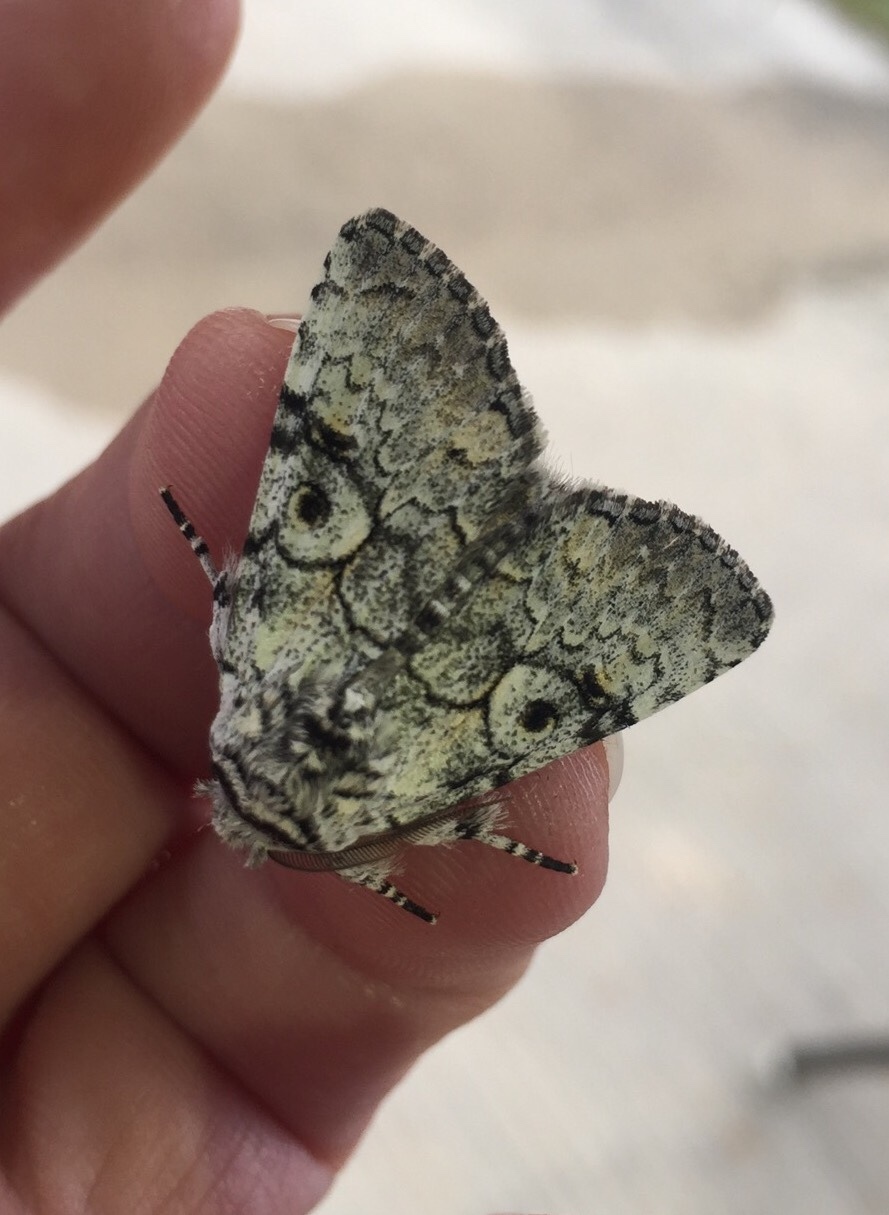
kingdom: Animalia
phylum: Arthropoda
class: Insecta
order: Lepidoptera
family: Noctuidae
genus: Charadra
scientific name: Charadra deridens
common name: Marbled tuffet
